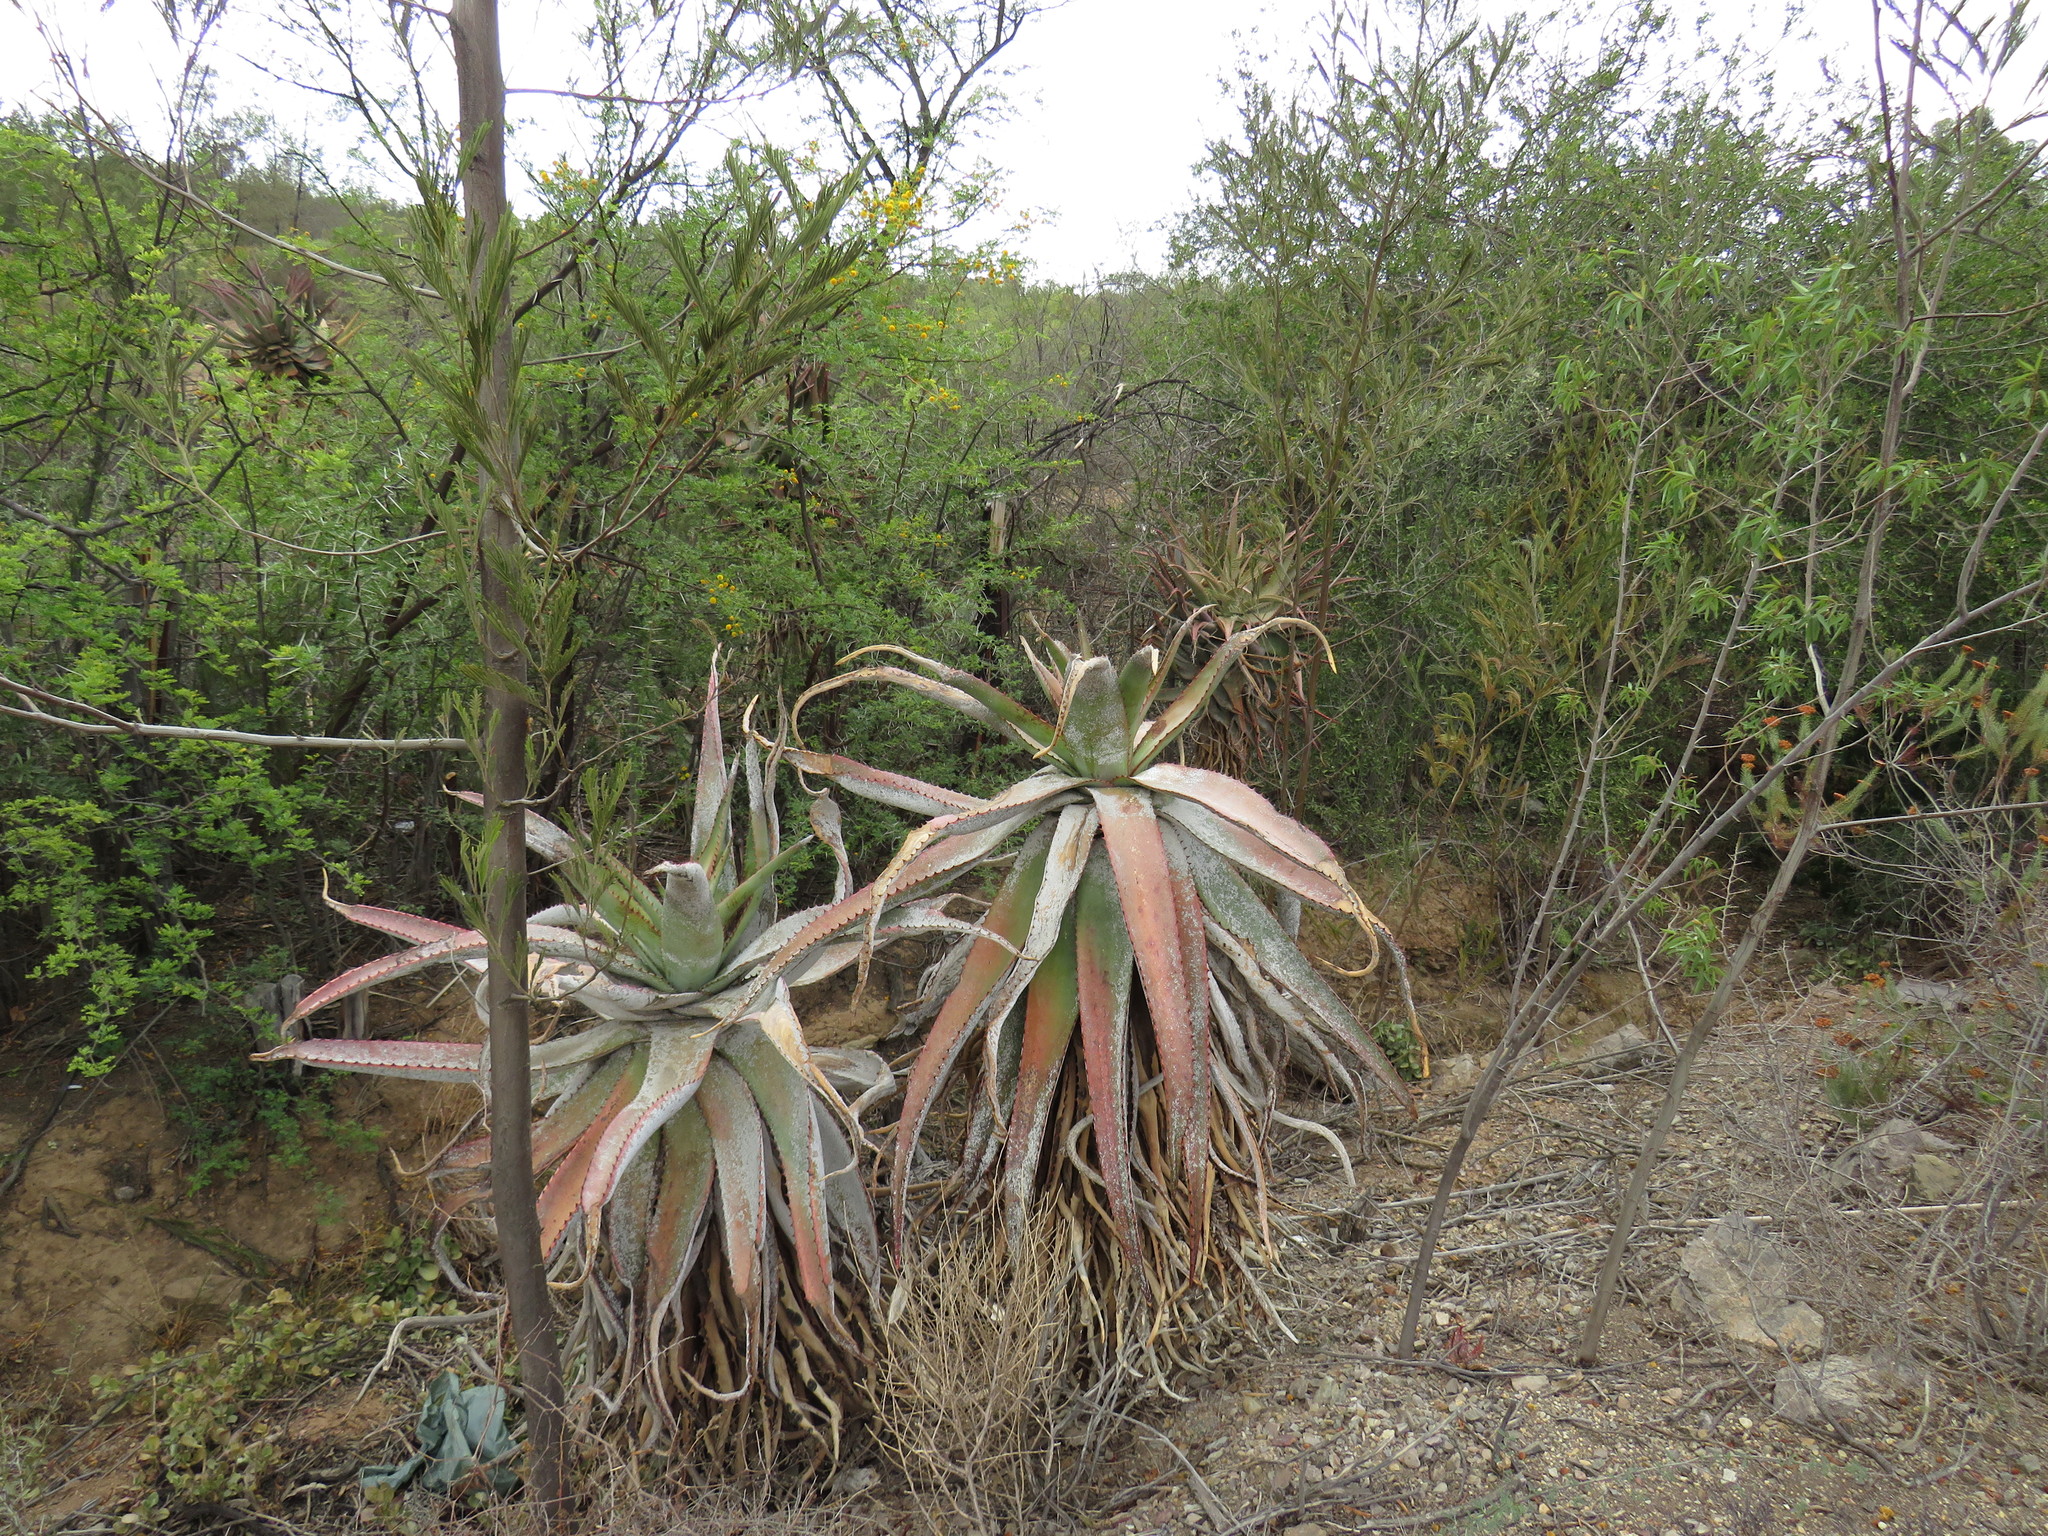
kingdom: Plantae
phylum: Tracheophyta
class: Liliopsida
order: Asparagales
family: Asphodelaceae
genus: Aloe
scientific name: Aloe ferox
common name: Bitter aloe
